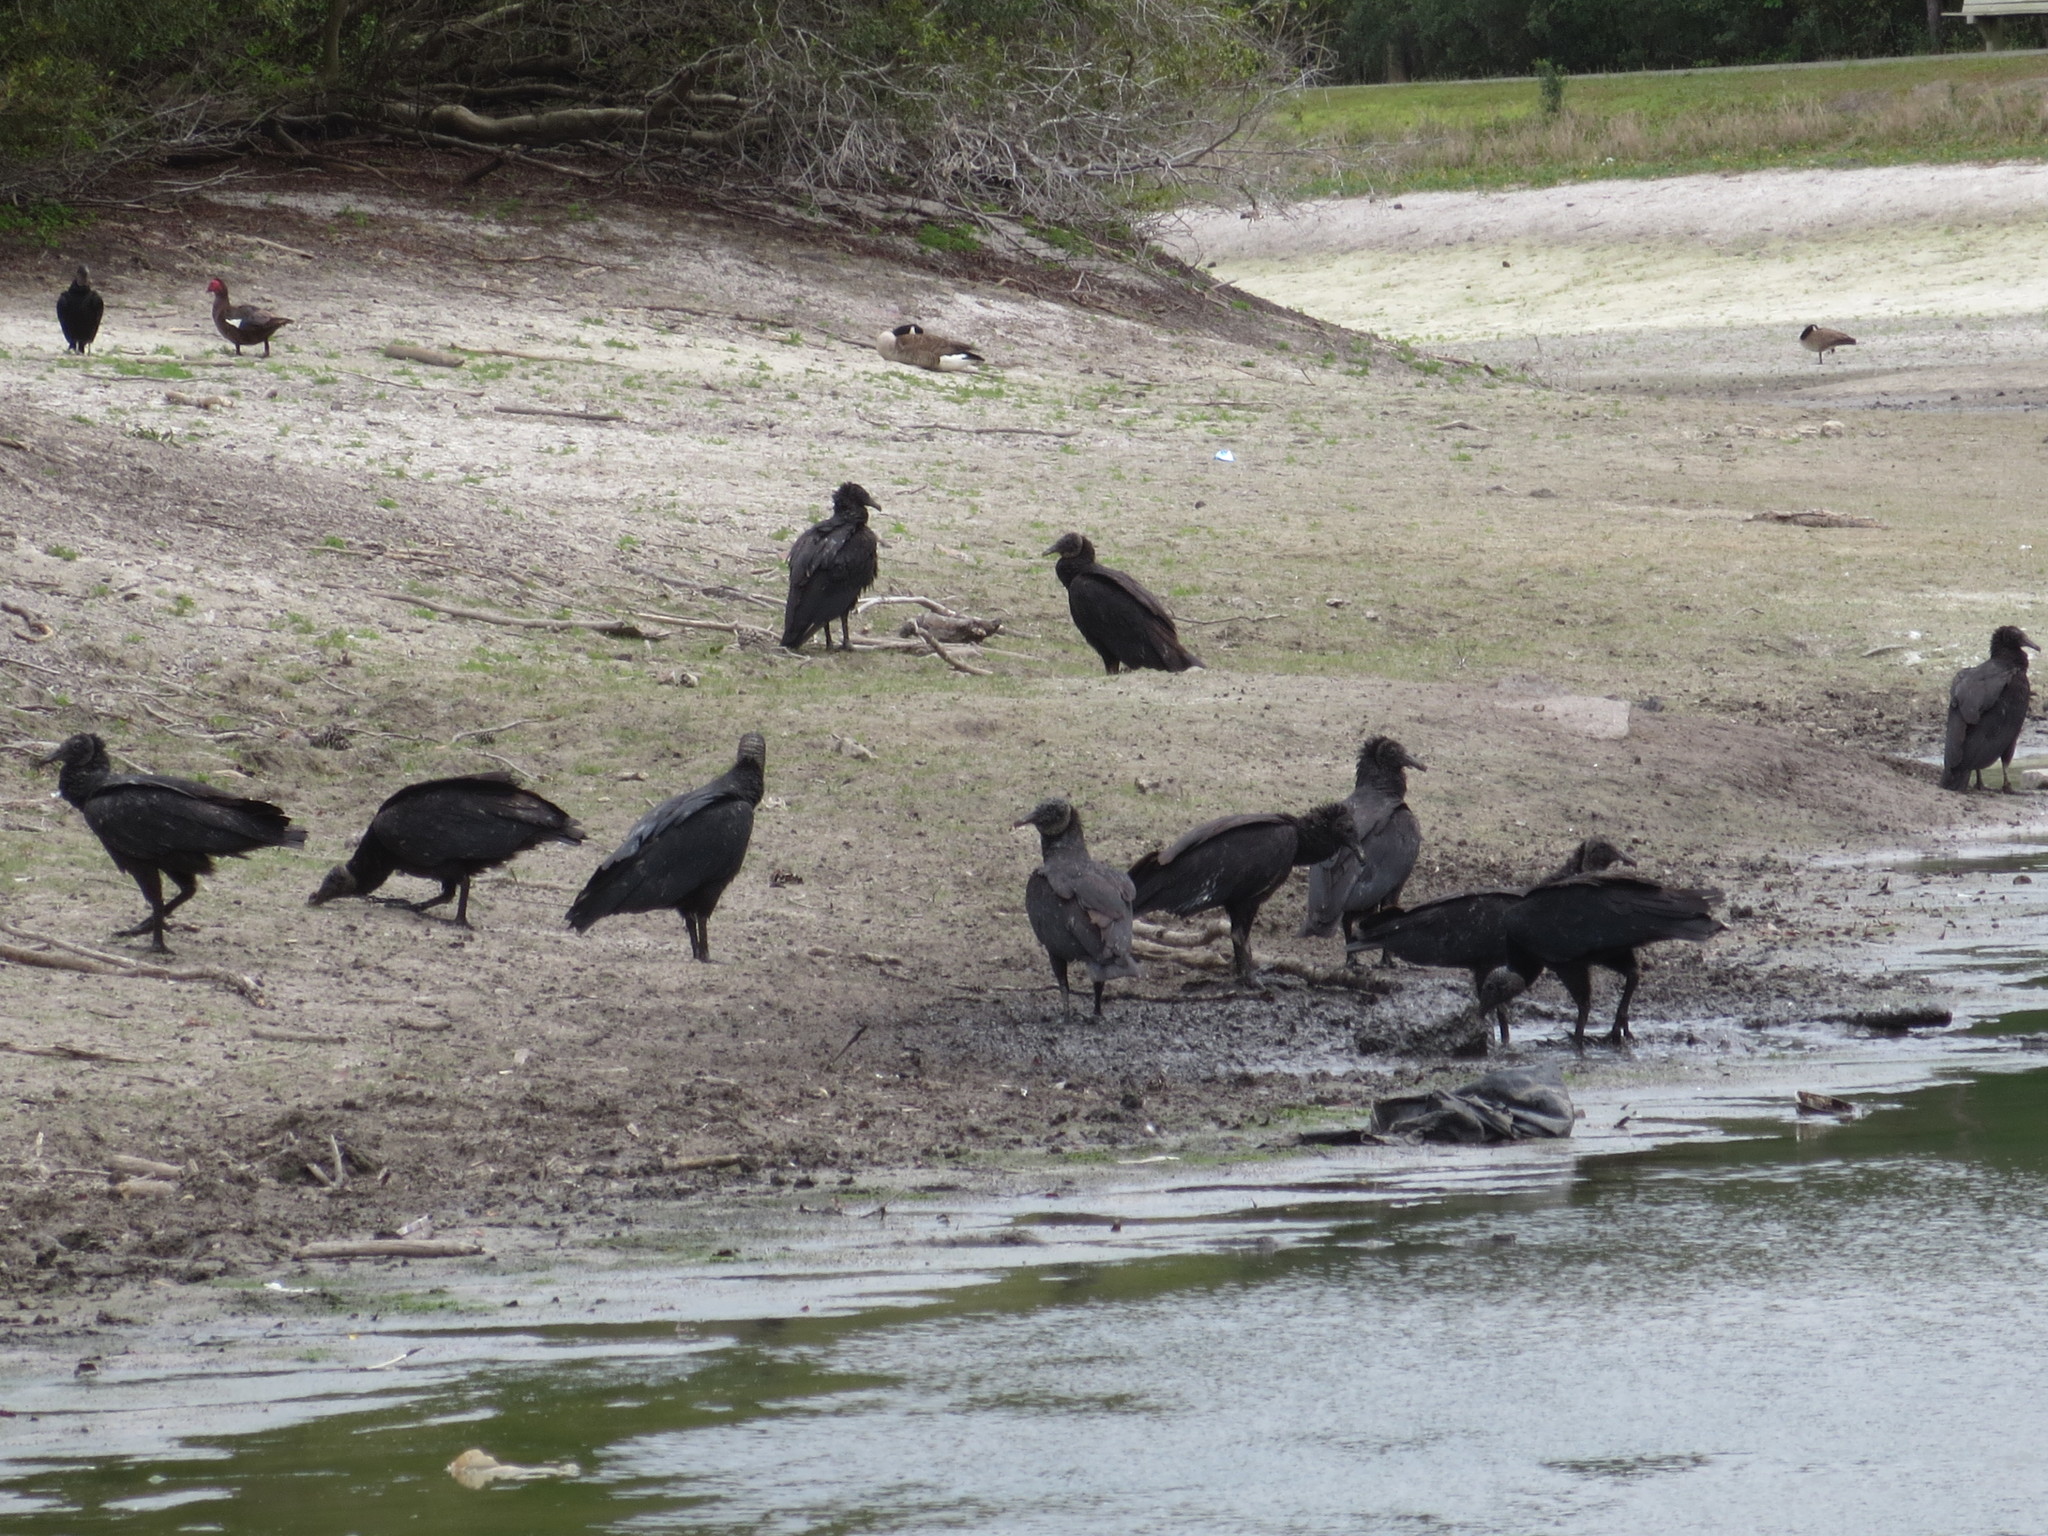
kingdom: Animalia
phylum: Chordata
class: Aves
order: Accipitriformes
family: Cathartidae
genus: Coragyps
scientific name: Coragyps atratus
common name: Black vulture
